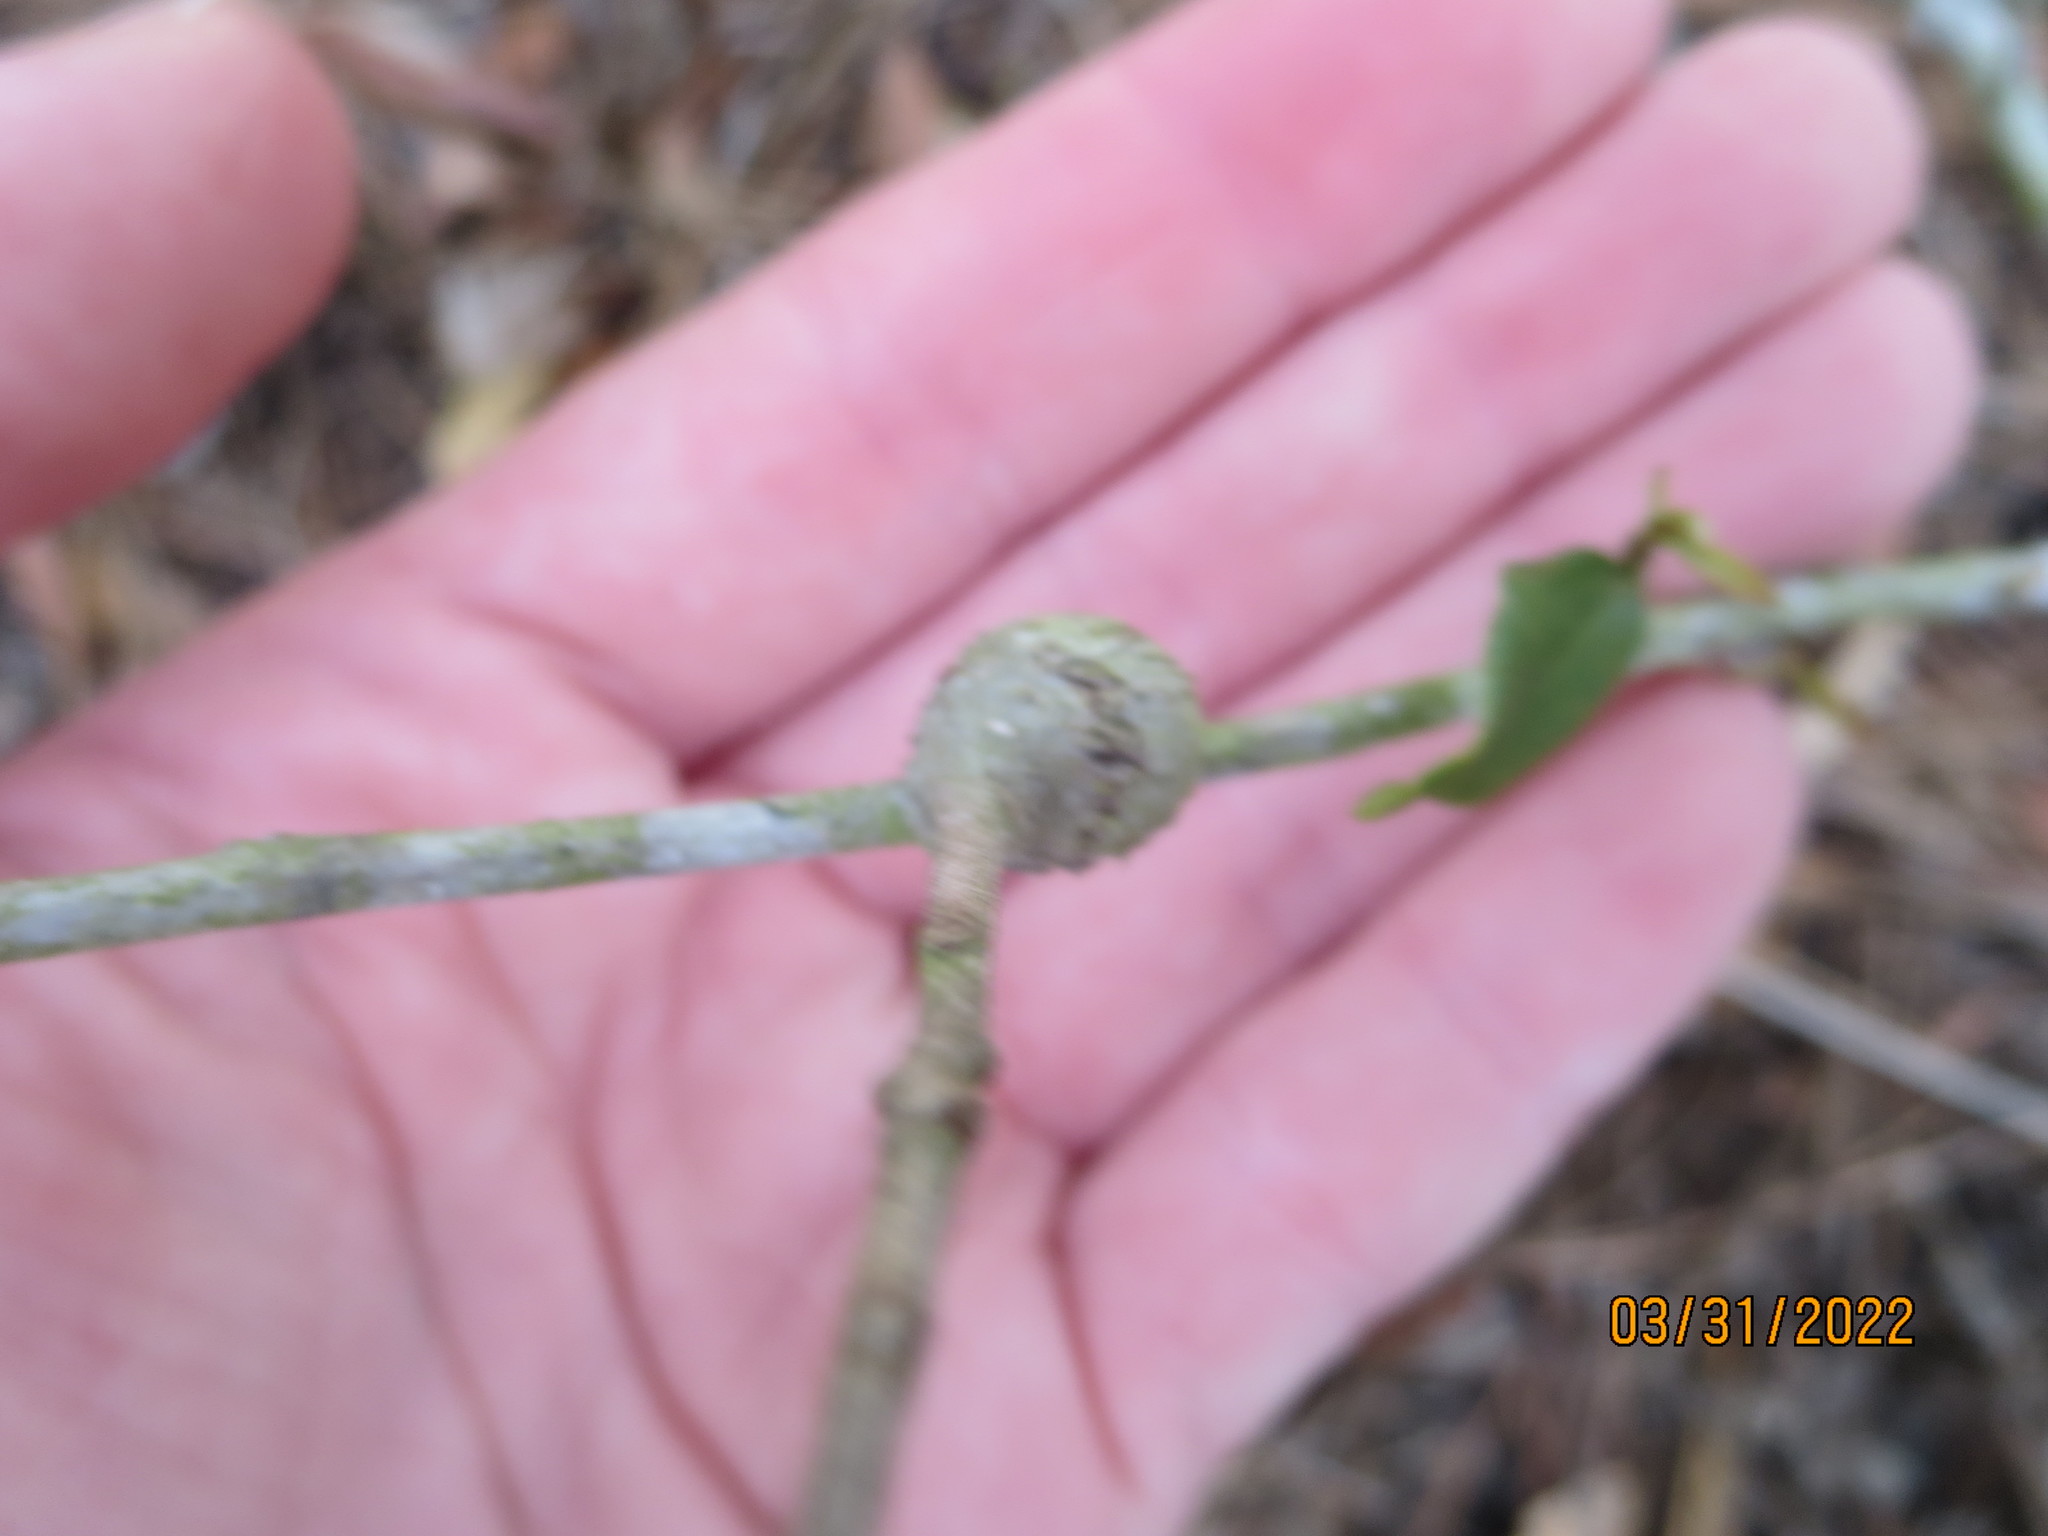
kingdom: Animalia
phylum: Arthropoda
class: Insecta
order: Hymenoptera
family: Cynipidae
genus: Callirhytis
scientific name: Callirhytis
